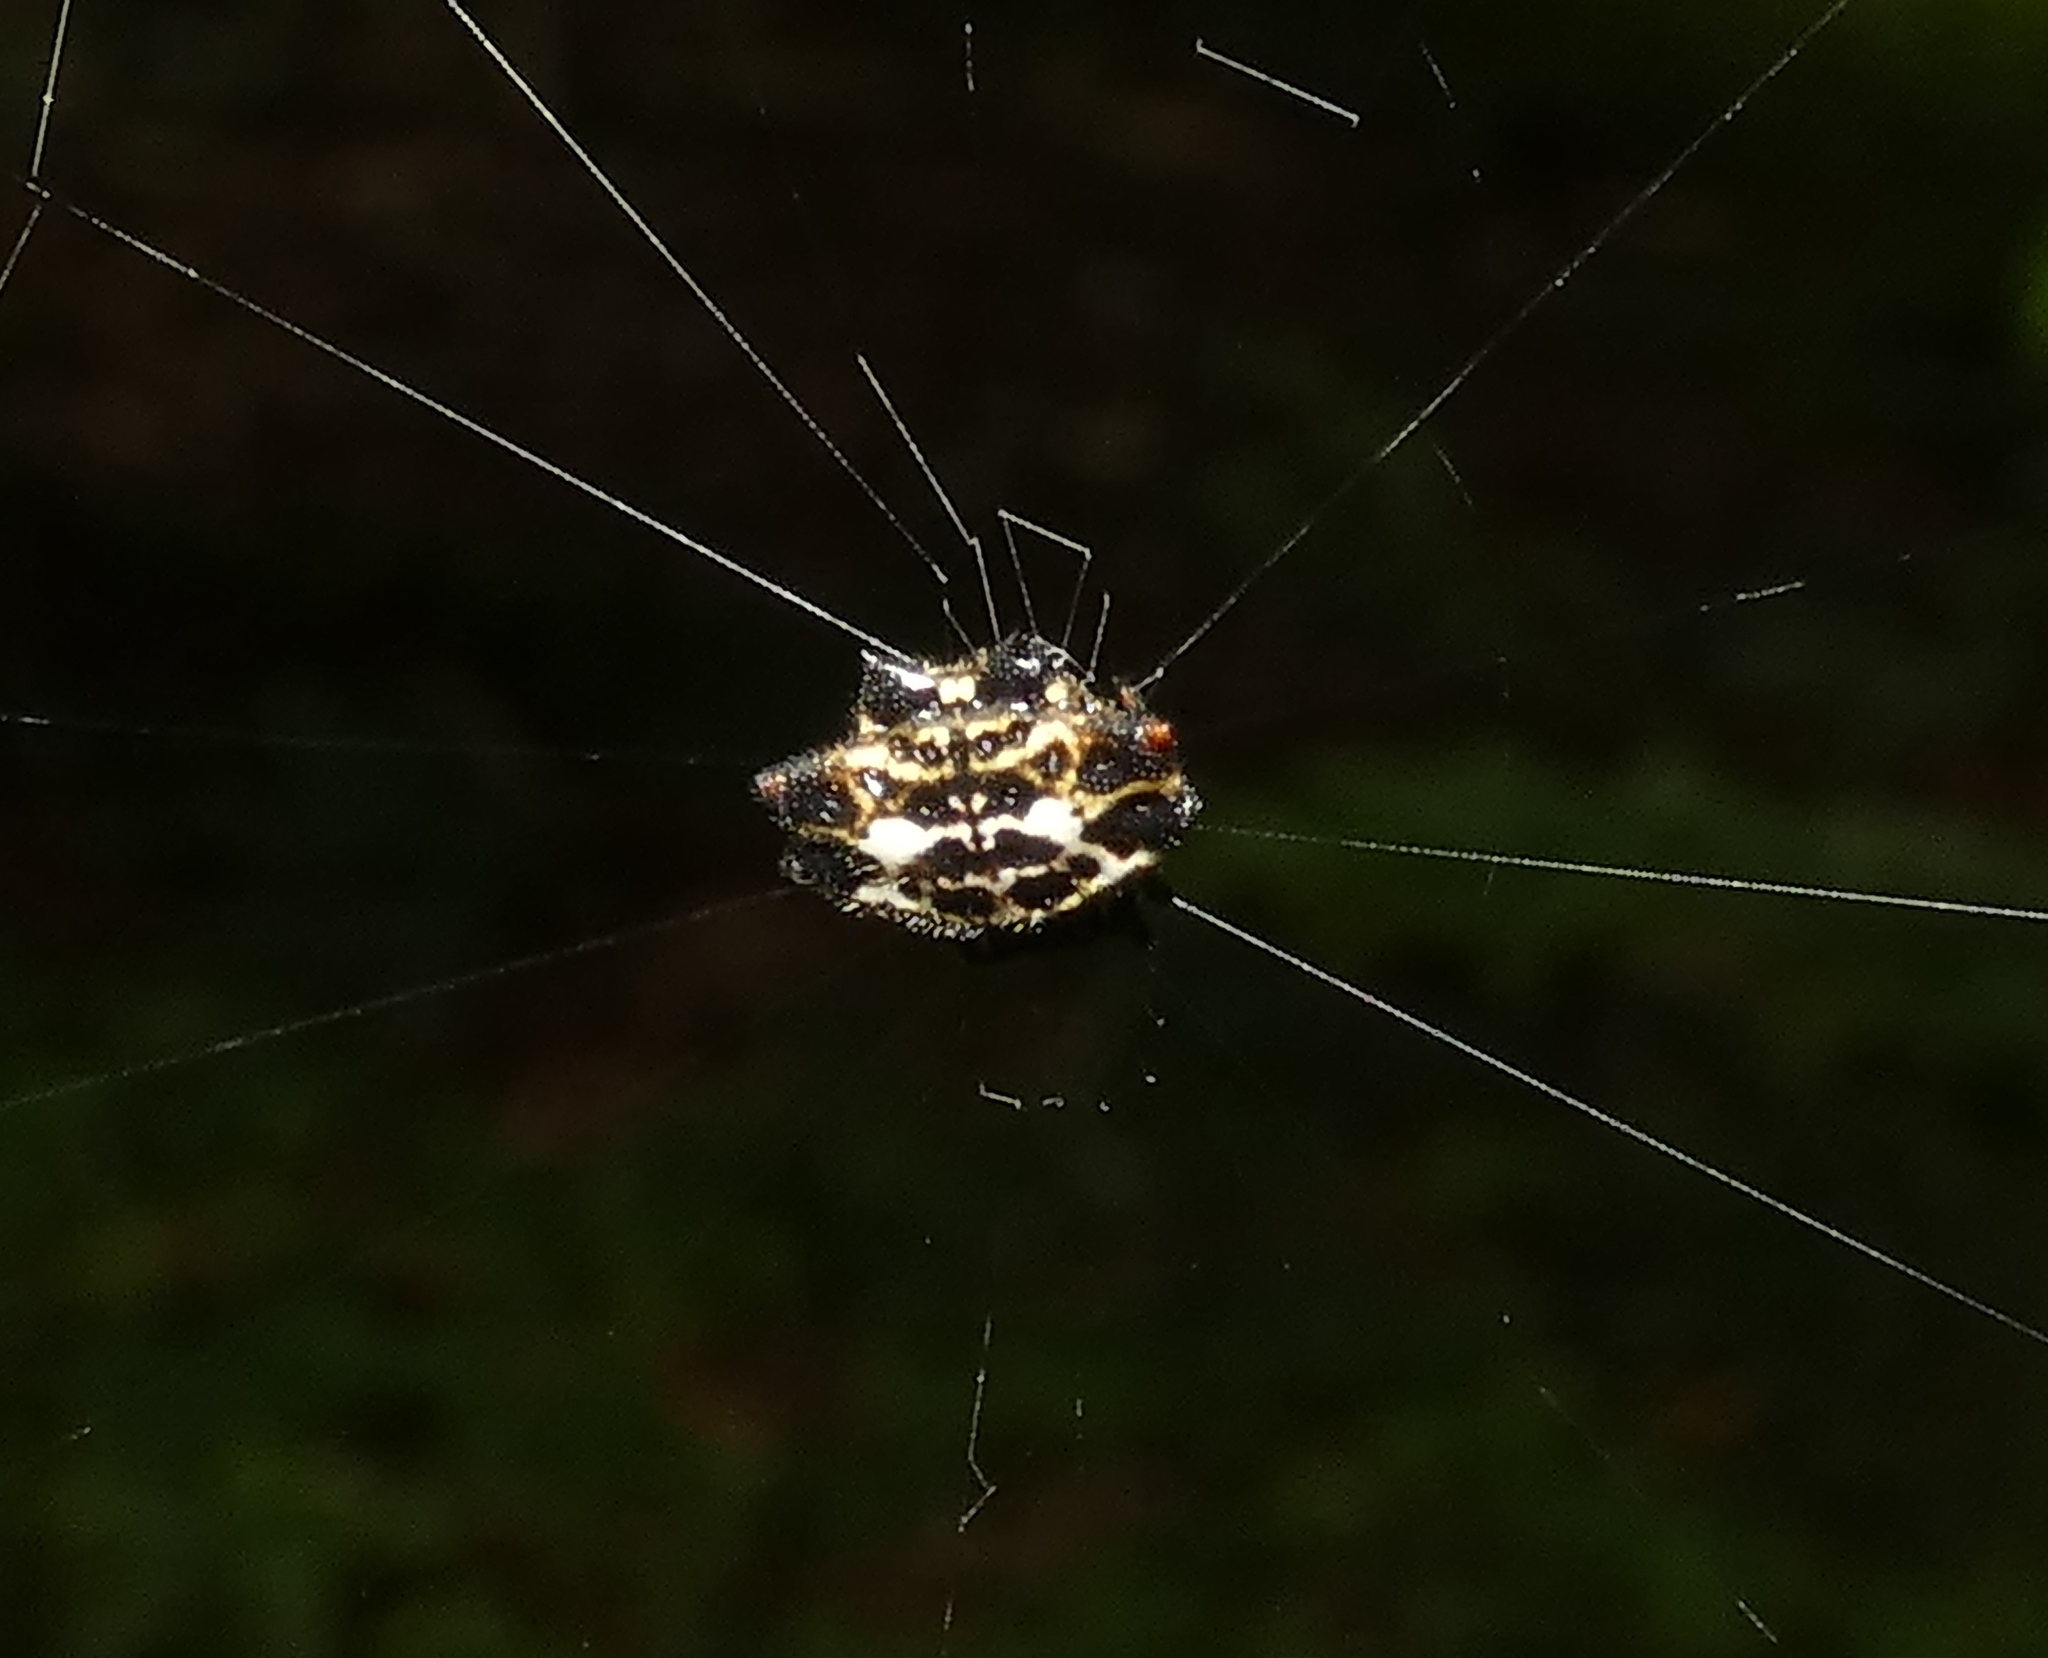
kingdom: Animalia
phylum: Arthropoda
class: Arachnida
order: Araneae
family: Araneidae
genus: Gasteracantha
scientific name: Gasteracantha cancriformis
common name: Orb weavers
